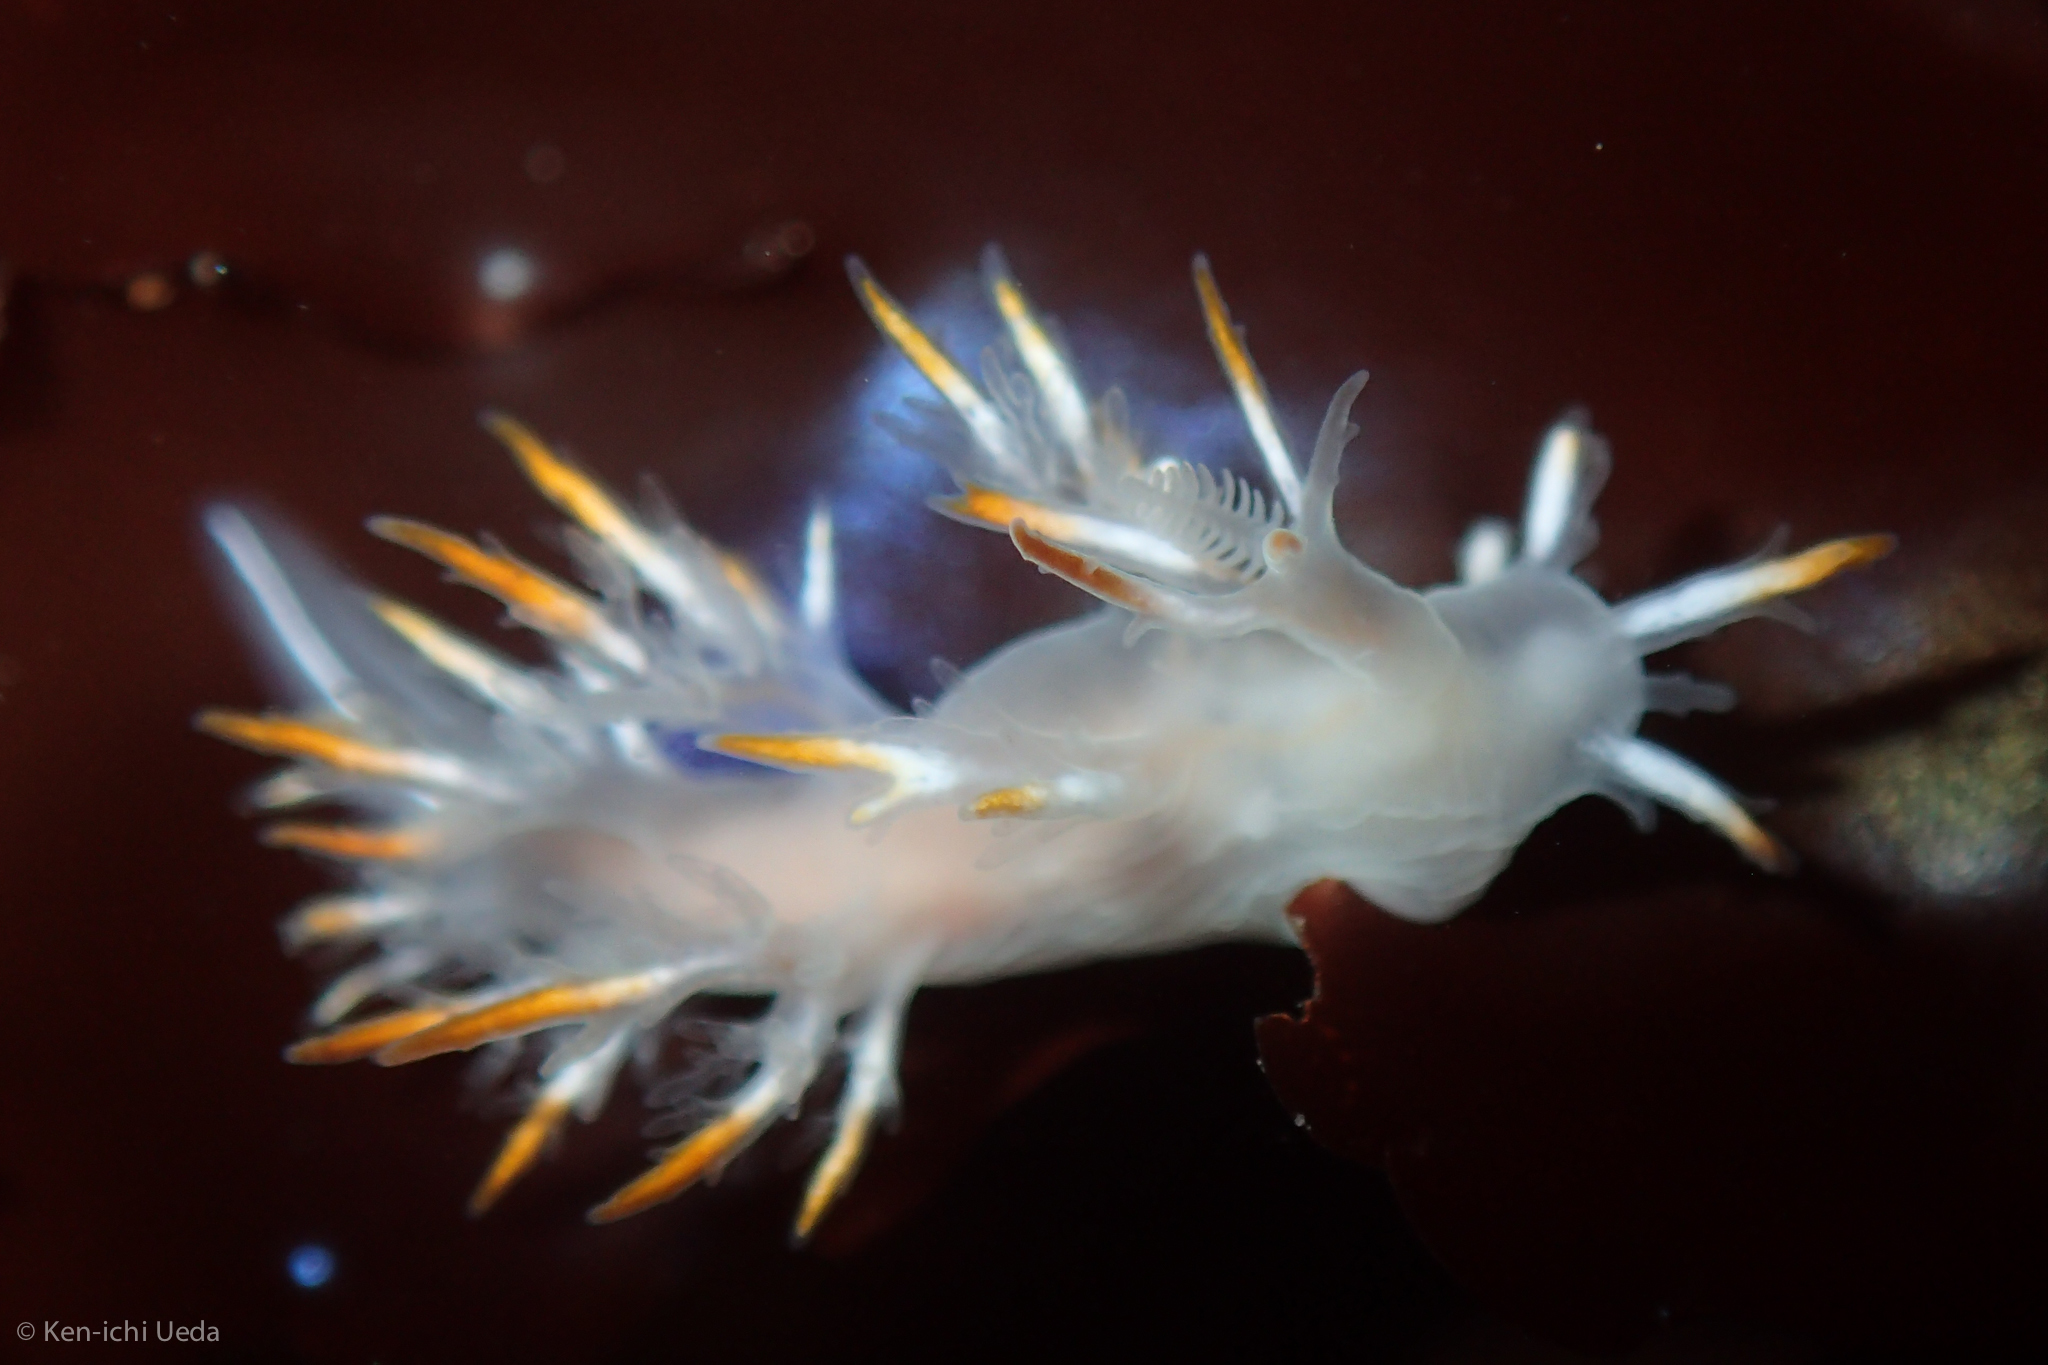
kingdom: Animalia
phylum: Mollusca
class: Gastropoda
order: Nudibranchia
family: Dendronotidae
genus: Dendronotus
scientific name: Dendronotus albus
